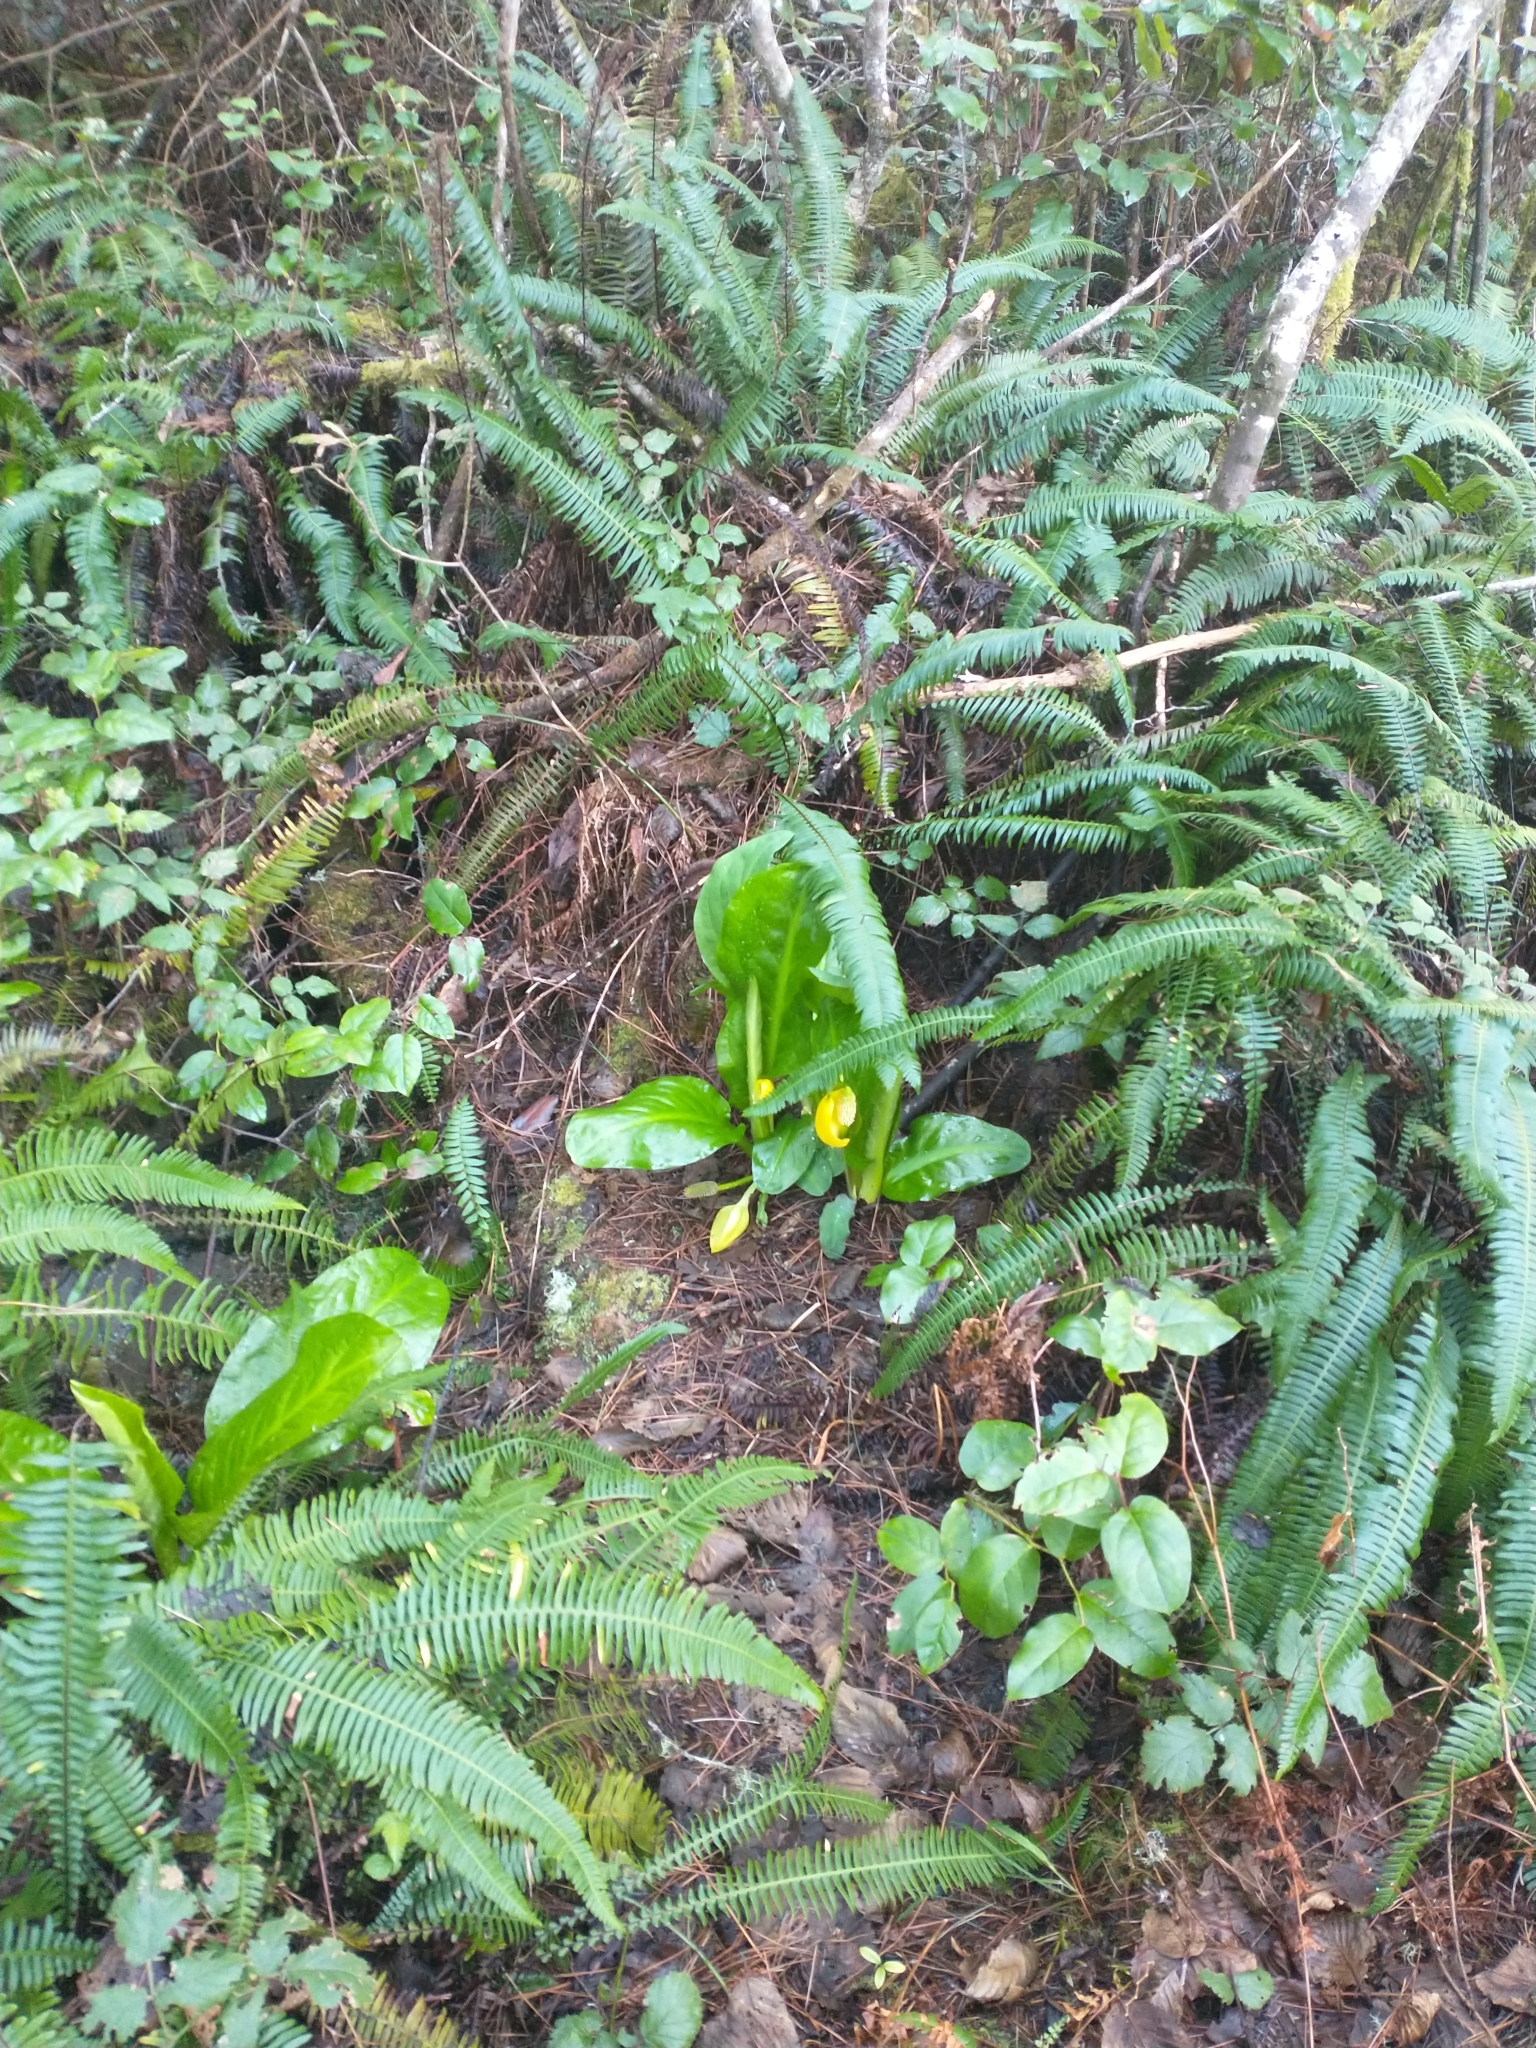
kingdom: Plantae
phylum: Tracheophyta
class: Liliopsida
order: Alismatales
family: Araceae
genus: Lysichiton
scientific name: Lysichiton americanus
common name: American skunk cabbage
